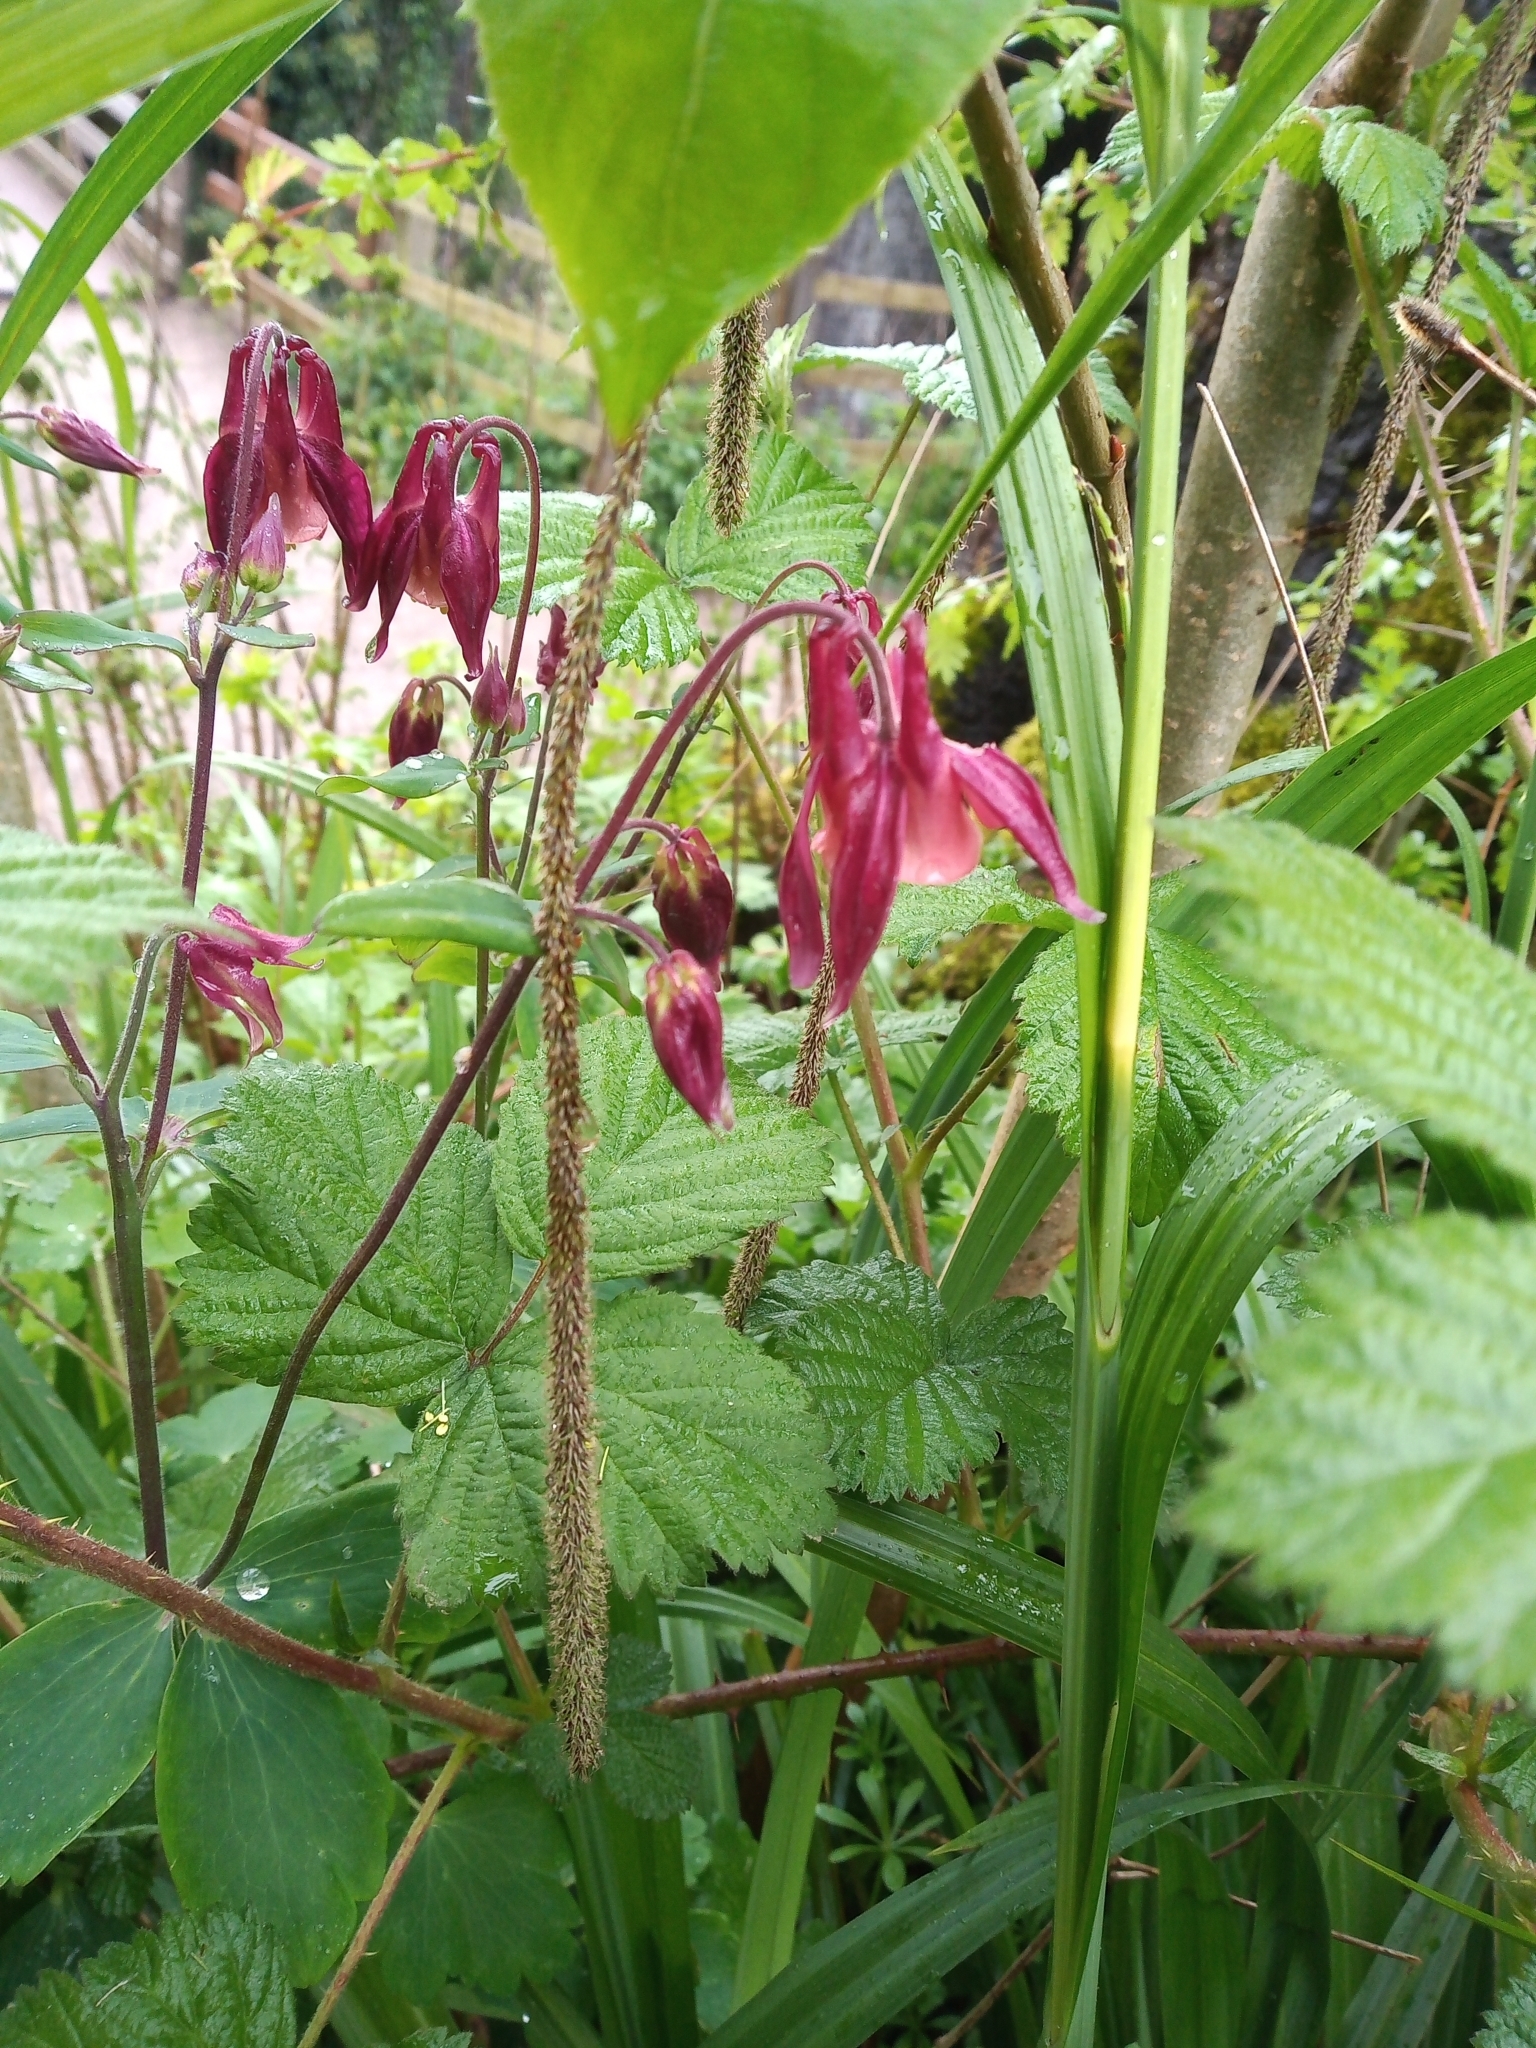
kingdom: Plantae
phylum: Tracheophyta
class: Magnoliopsida
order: Ranunculales
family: Ranunculaceae
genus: Aquilegia
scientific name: Aquilegia vulgaris
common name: Columbine
